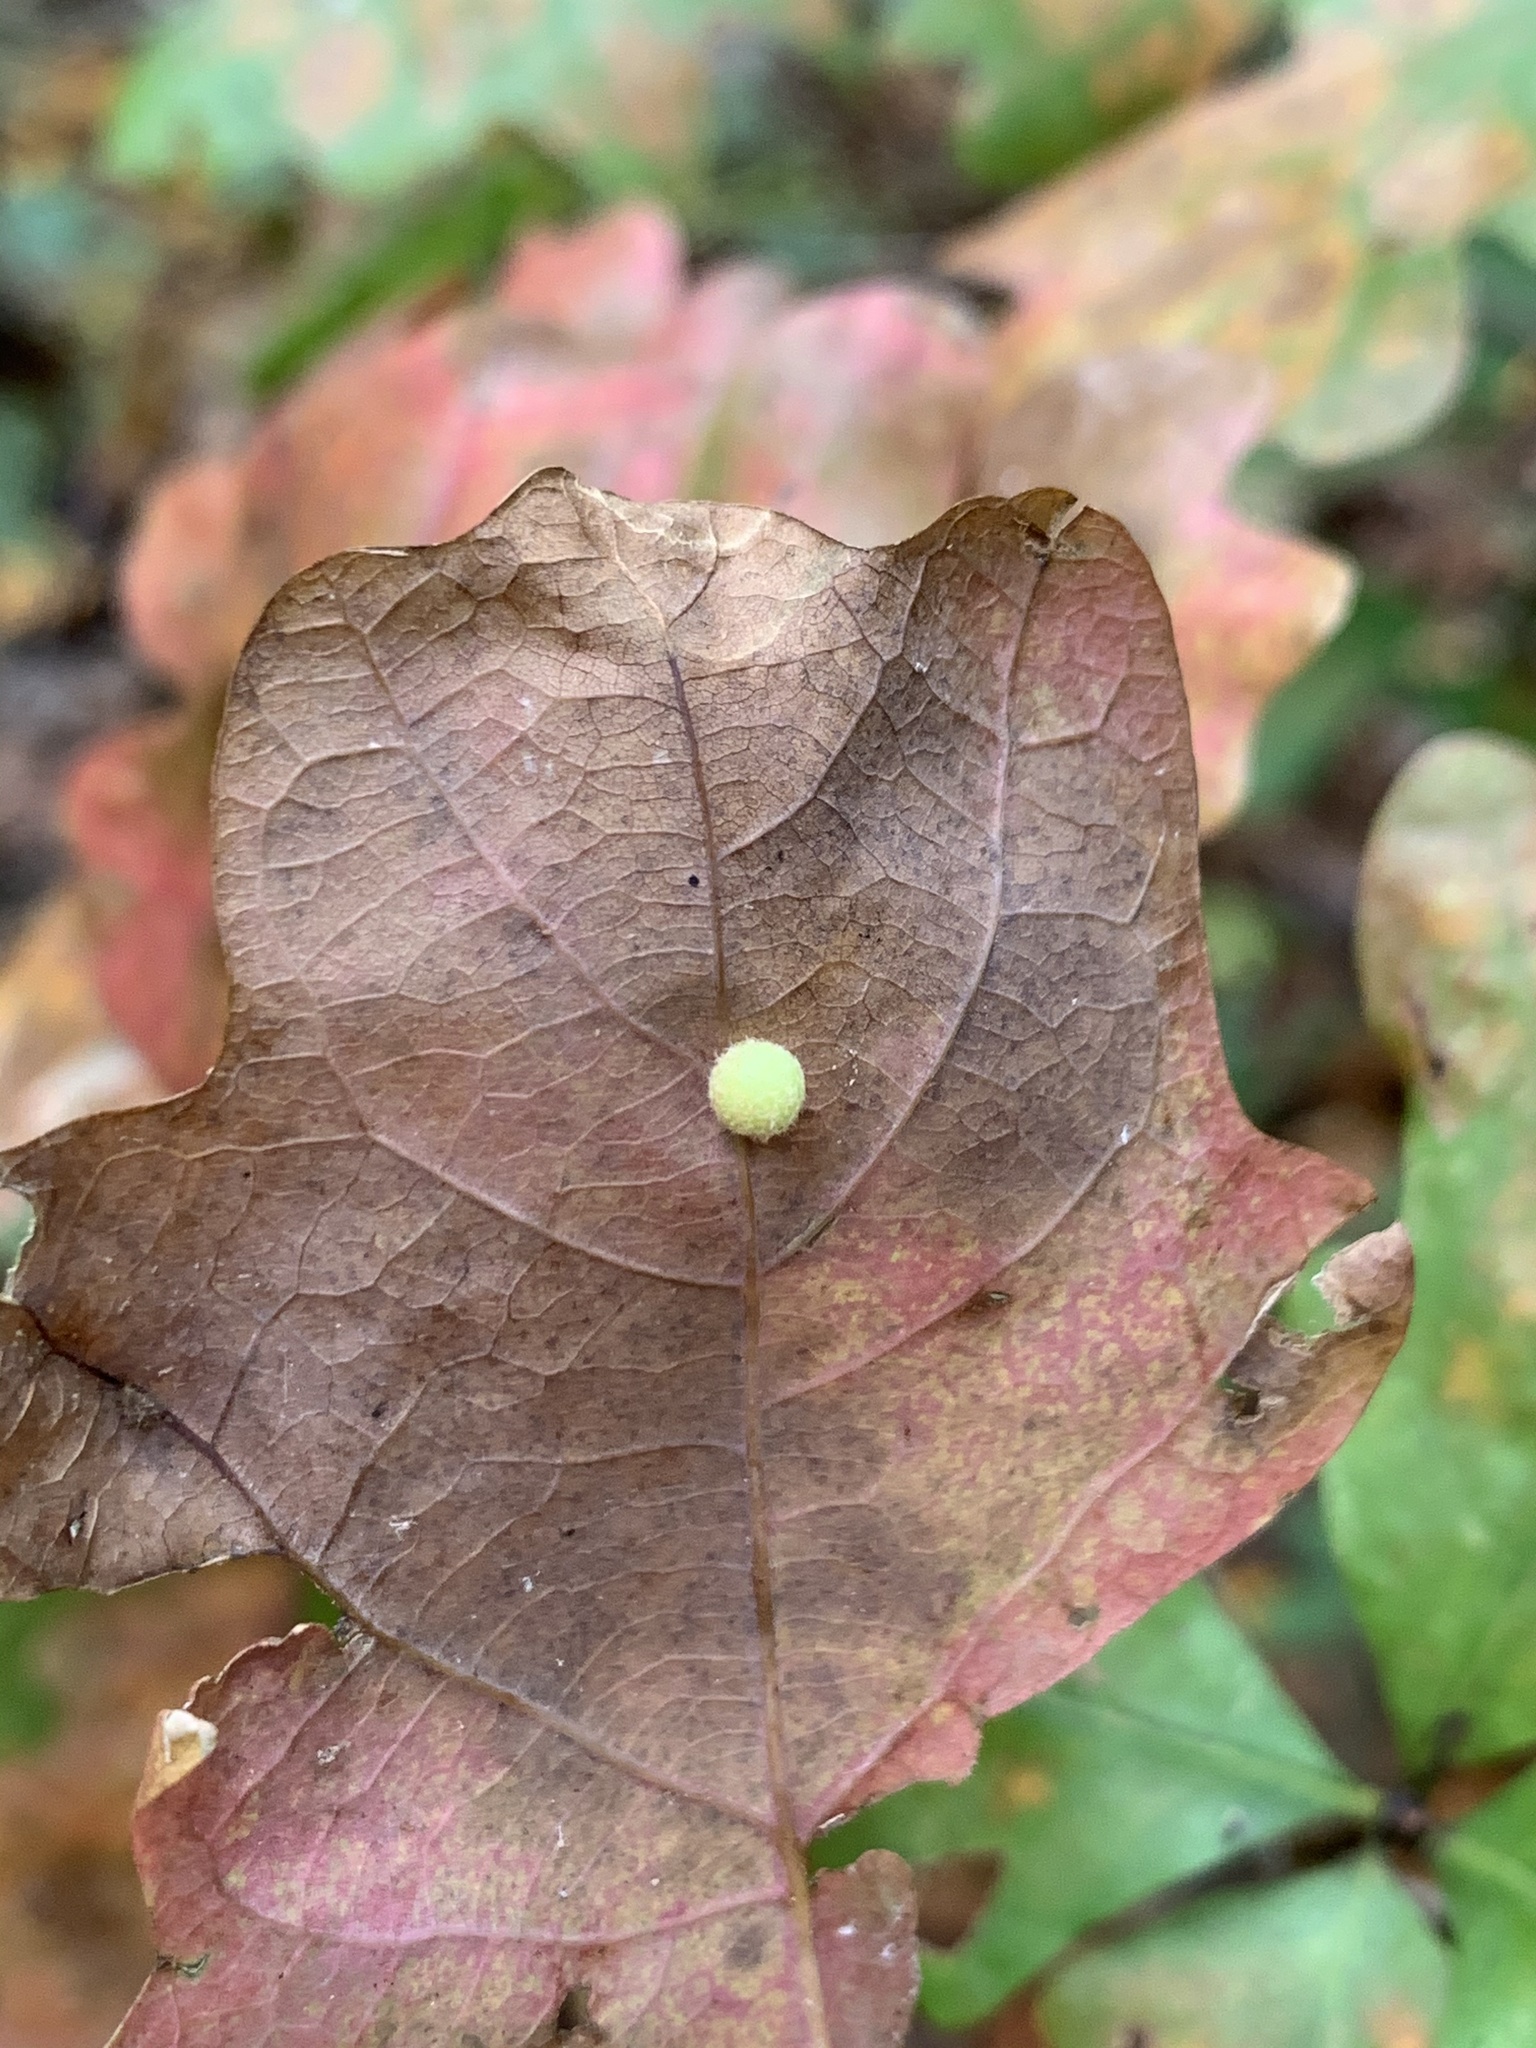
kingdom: Animalia
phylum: Arthropoda
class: Insecta
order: Hymenoptera
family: Cynipidae
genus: Philonix
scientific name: Philonix fulvicollis
